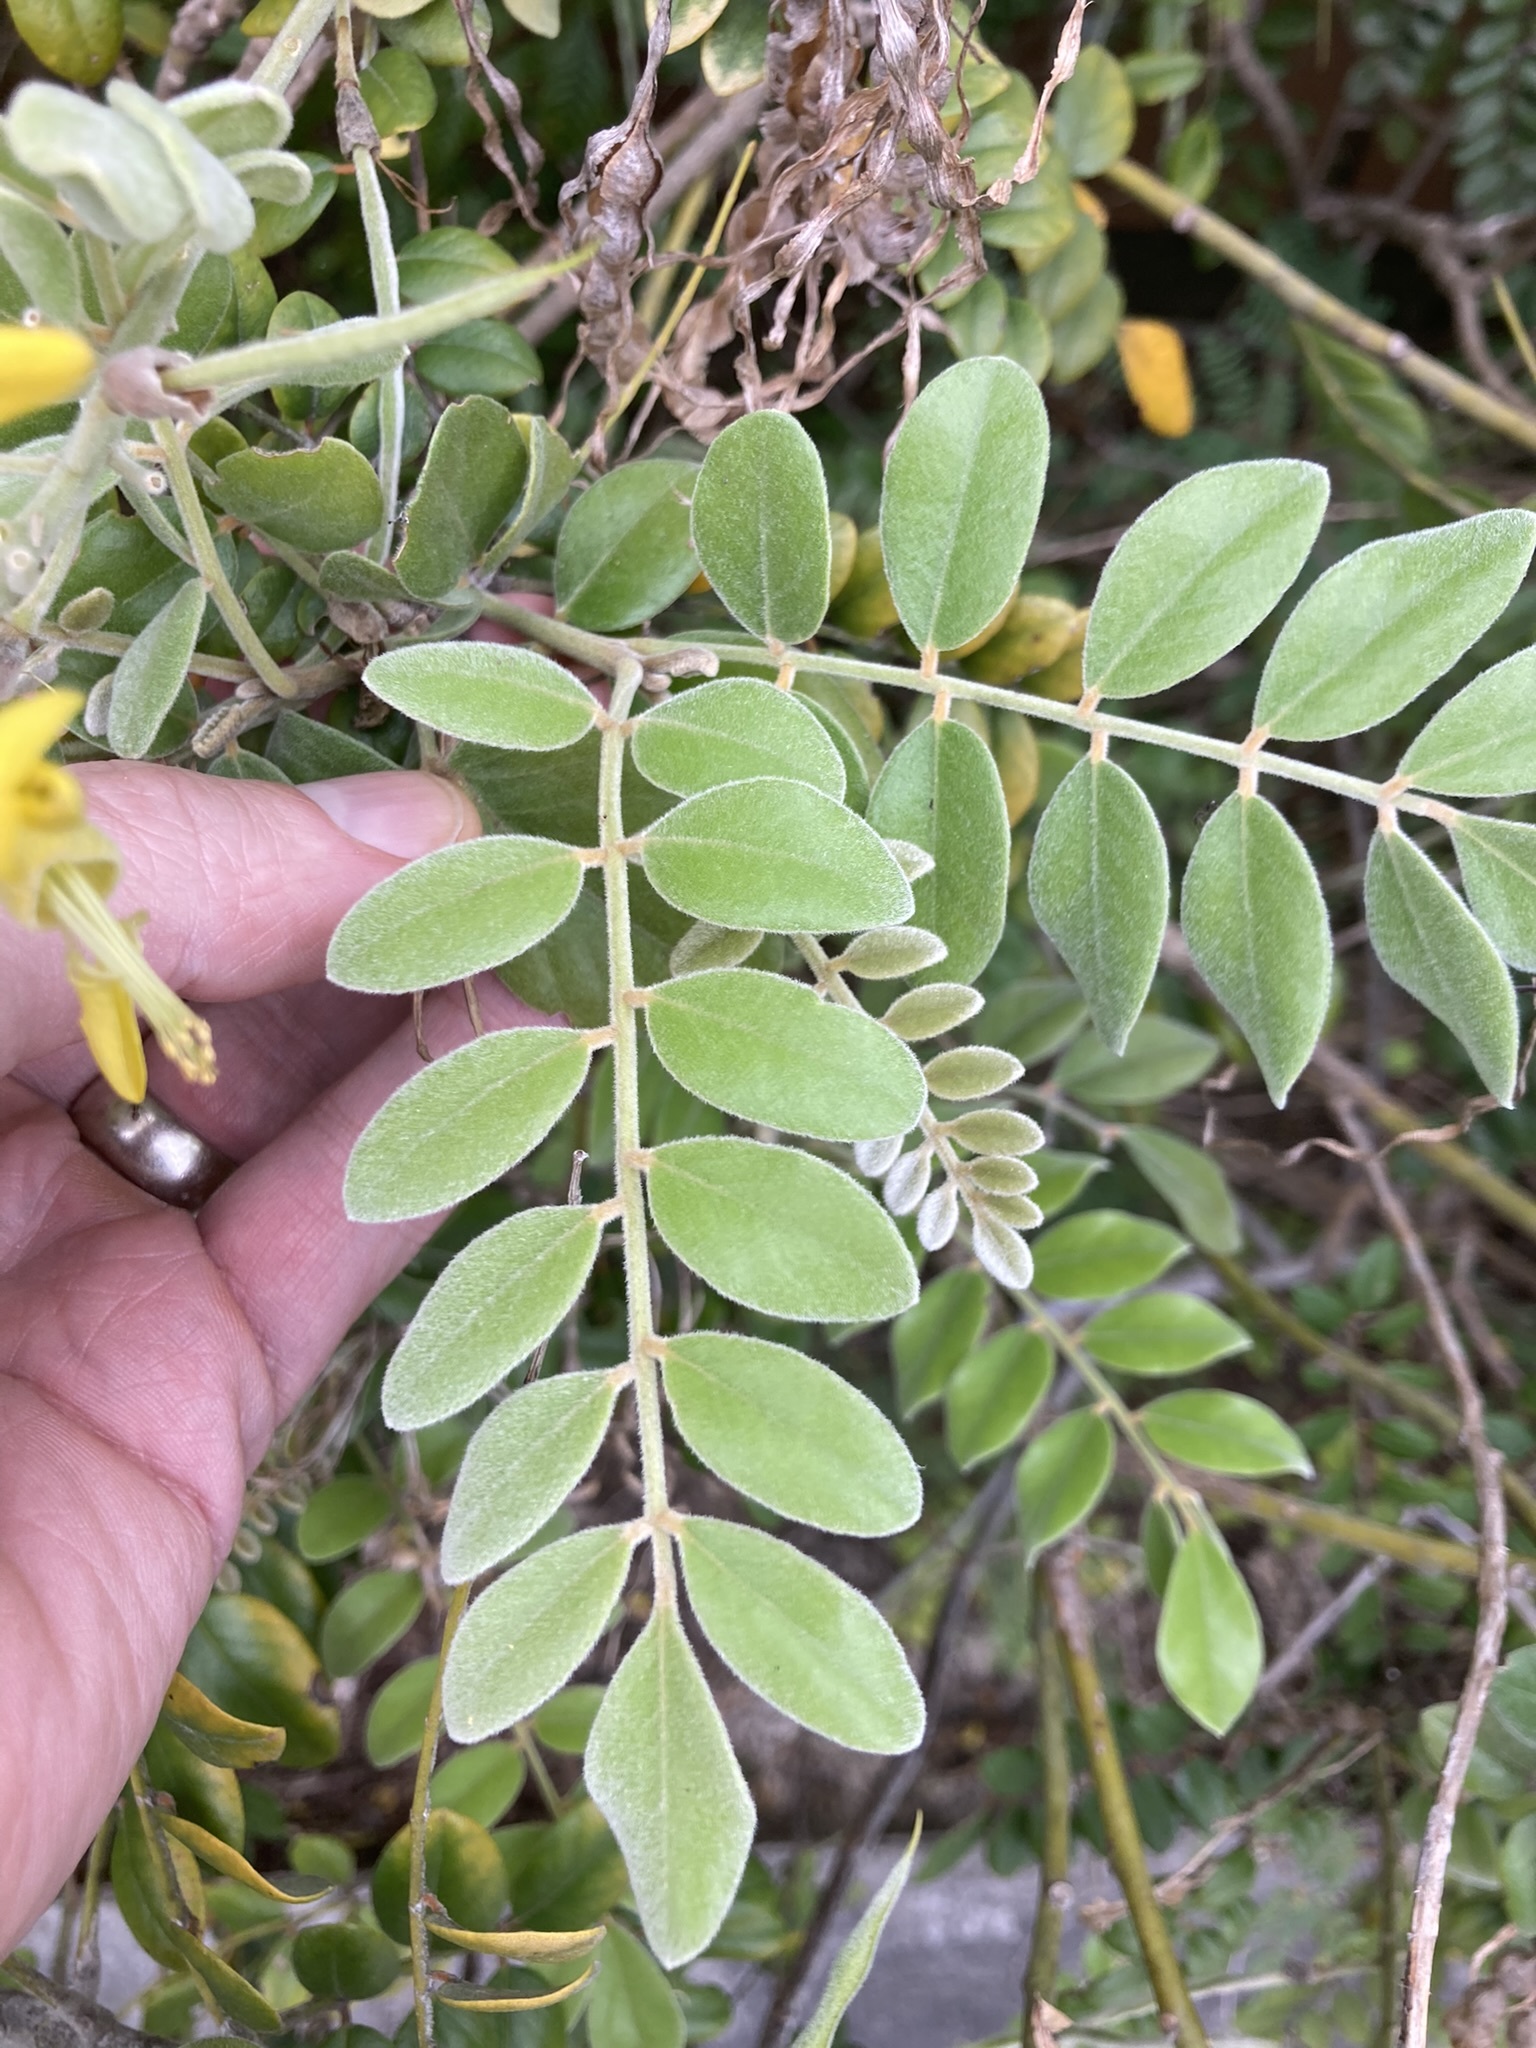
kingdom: Plantae
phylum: Tracheophyta
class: Magnoliopsida
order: Fabales
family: Fabaceae
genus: Sophora
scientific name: Sophora tomentosa
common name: Yellow necklacepod
